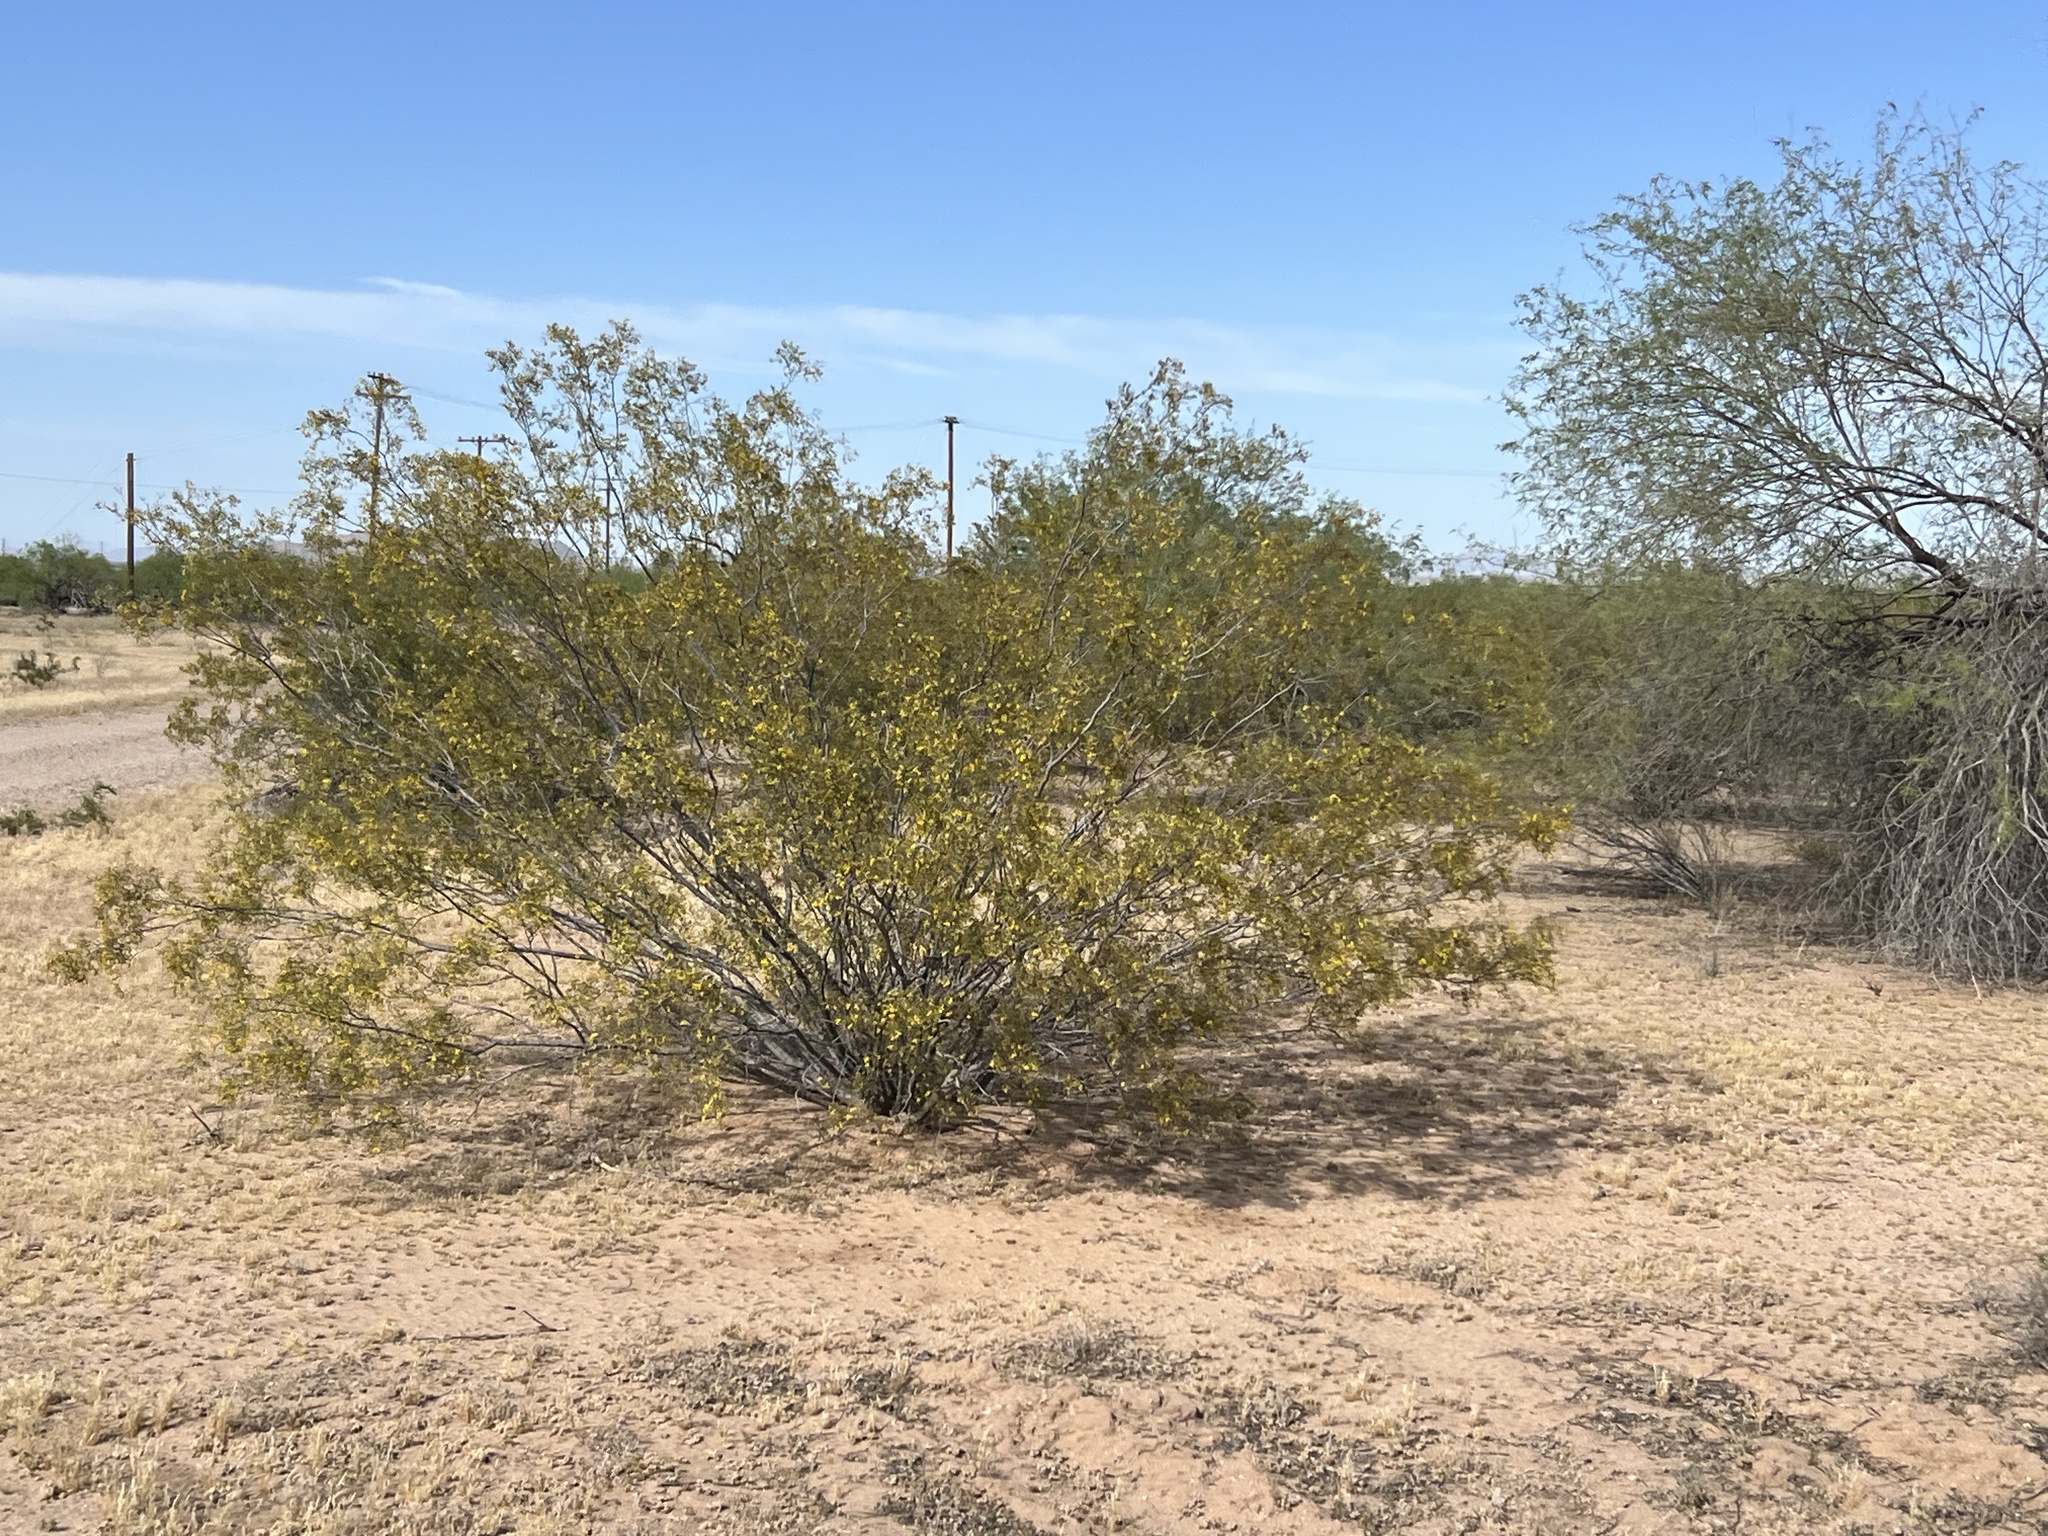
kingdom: Plantae
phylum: Tracheophyta
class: Magnoliopsida
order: Zygophyllales
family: Zygophyllaceae
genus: Larrea
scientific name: Larrea tridentata
